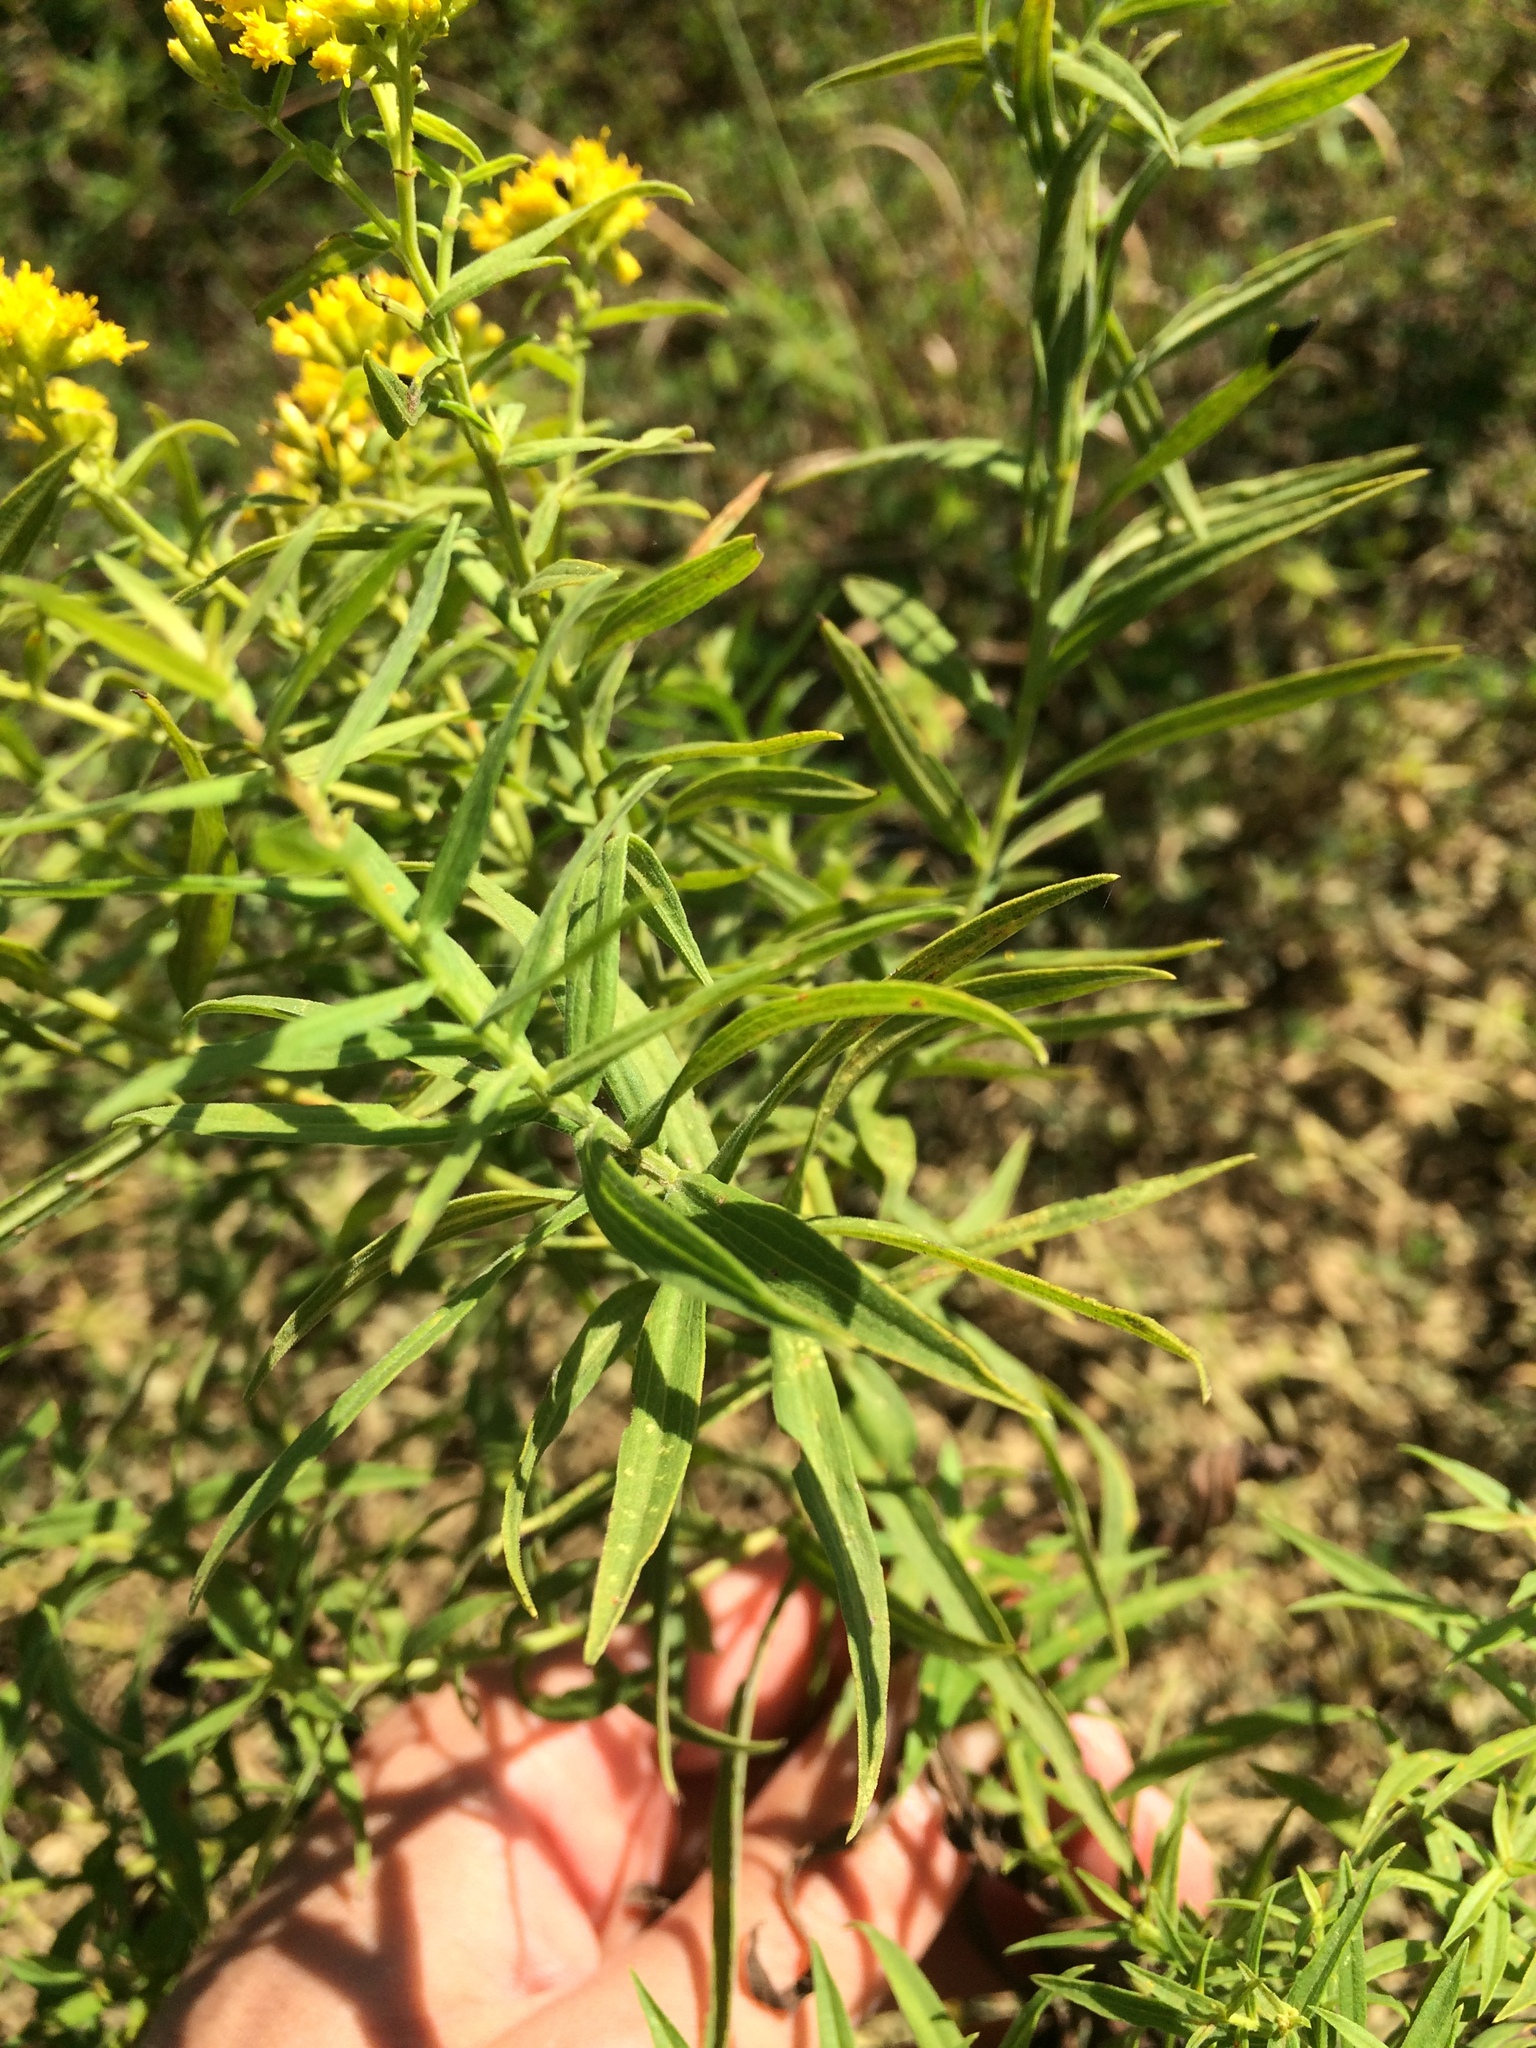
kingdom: Plantae
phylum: Tracheophyta
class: Magnoliopsida
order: Asterales
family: Asteraceae
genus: Euthamia
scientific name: Euthamia graminifolia
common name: Common goldentop
